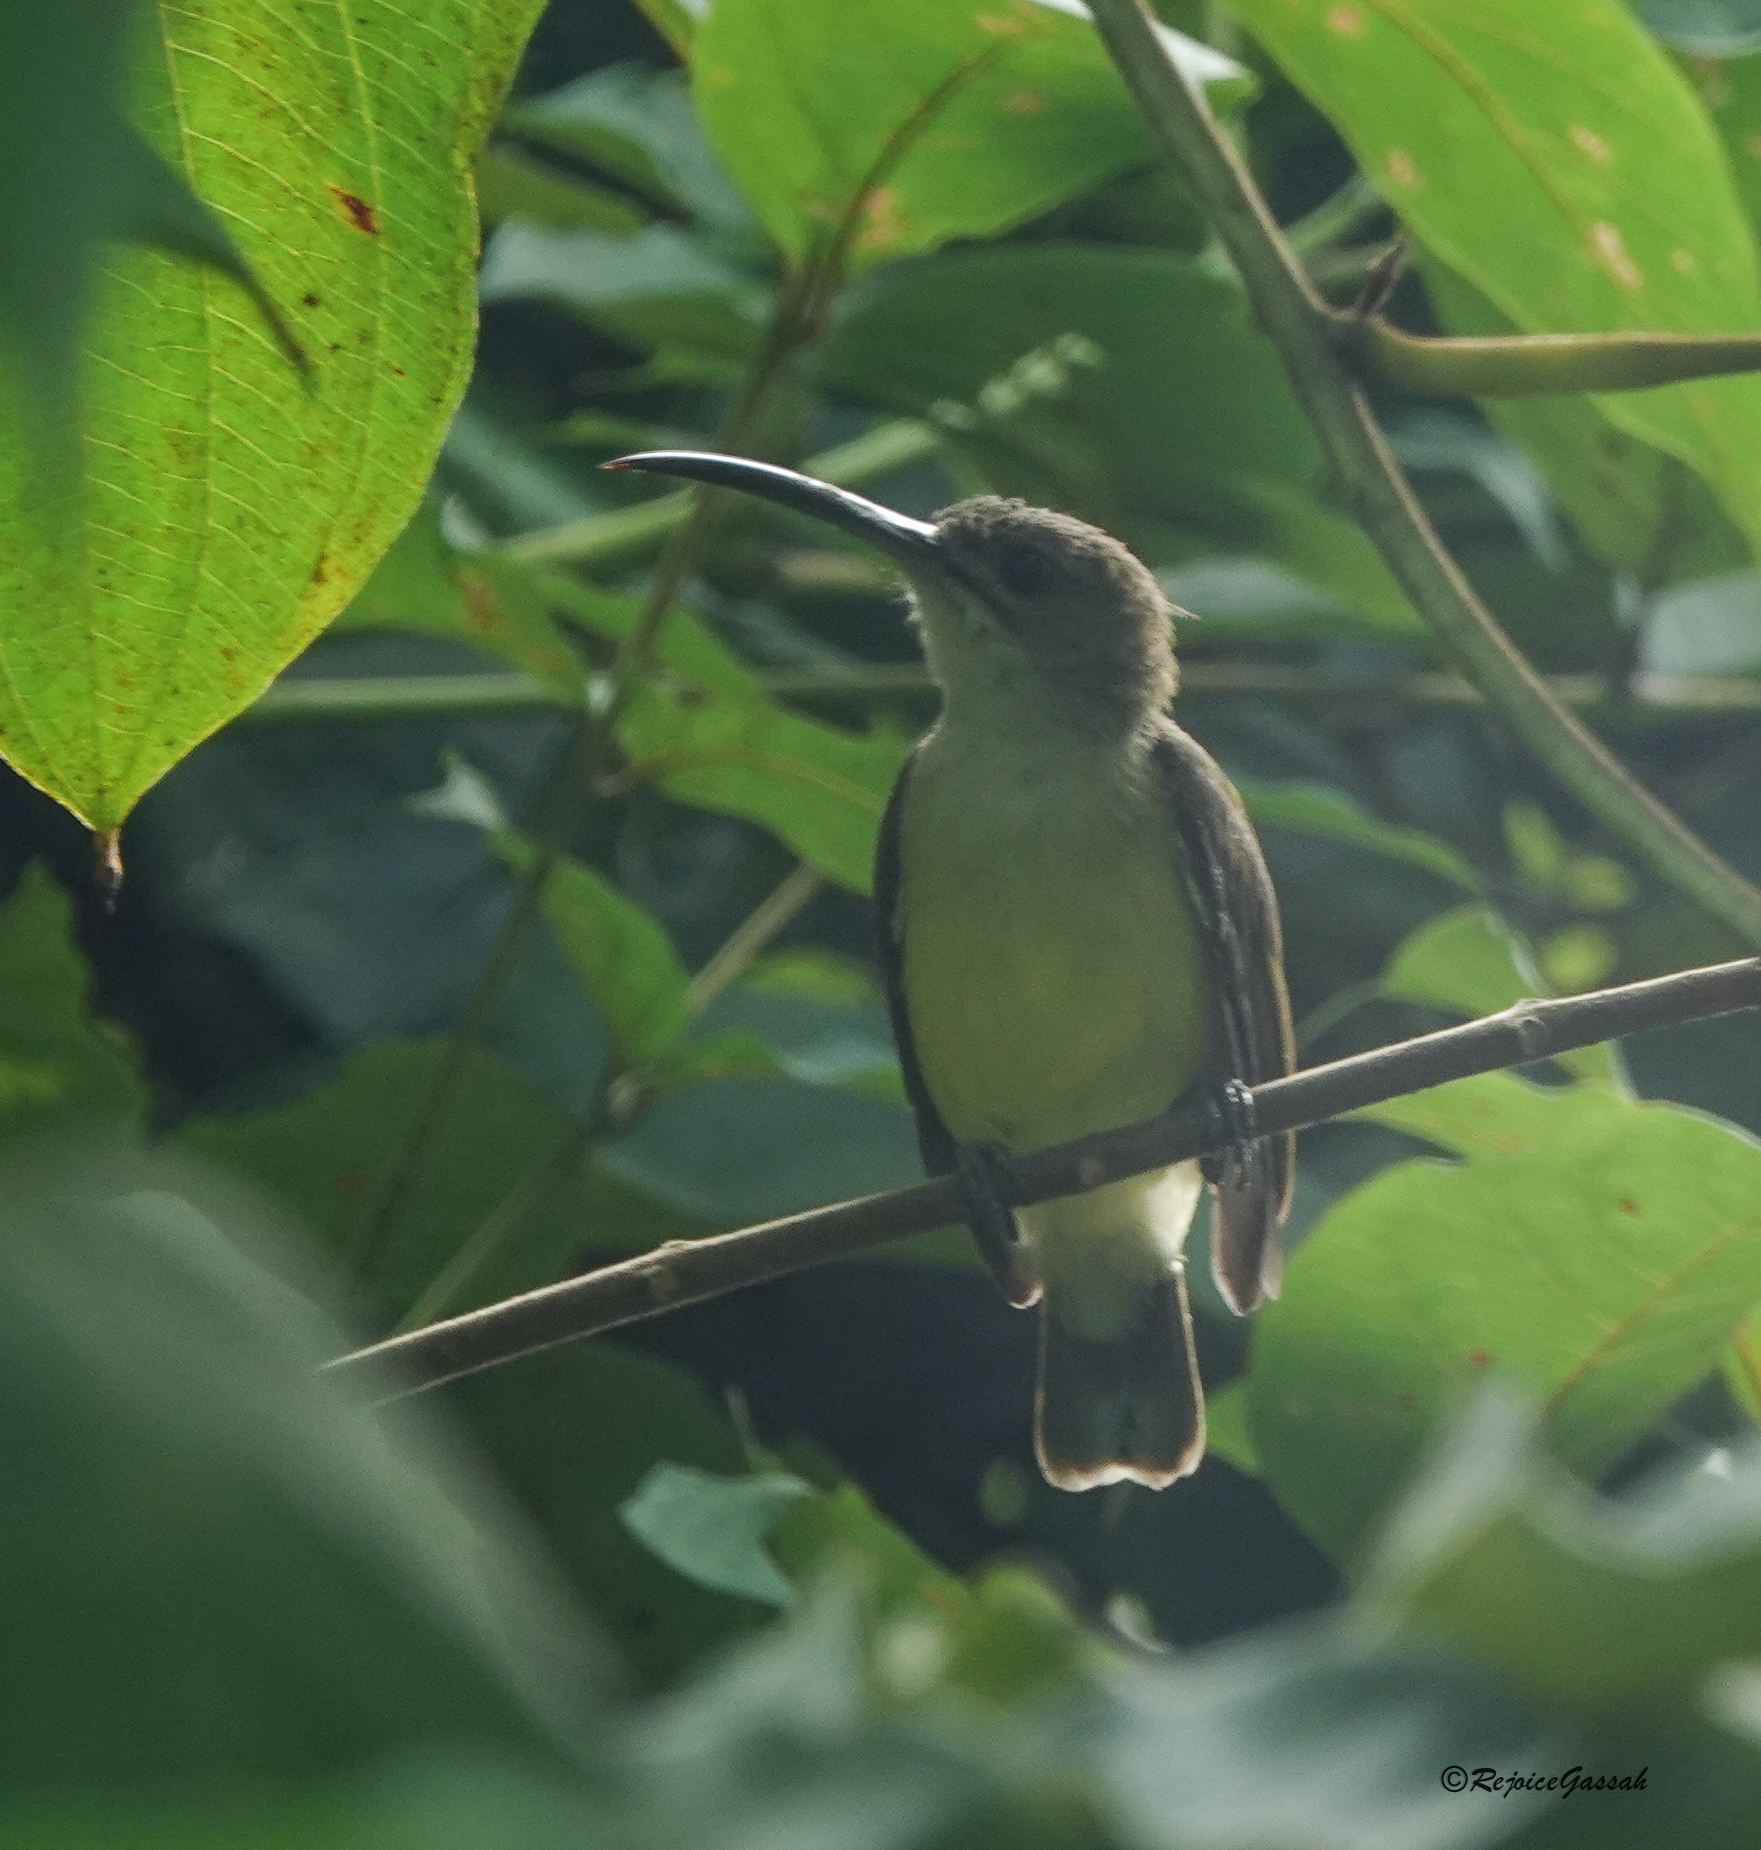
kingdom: Animalia
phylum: Chordata
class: Aves
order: Passeriformes
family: Nectariniidae
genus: Arachnothera
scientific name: Arachnothera longirostra
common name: Little spiderhunter
